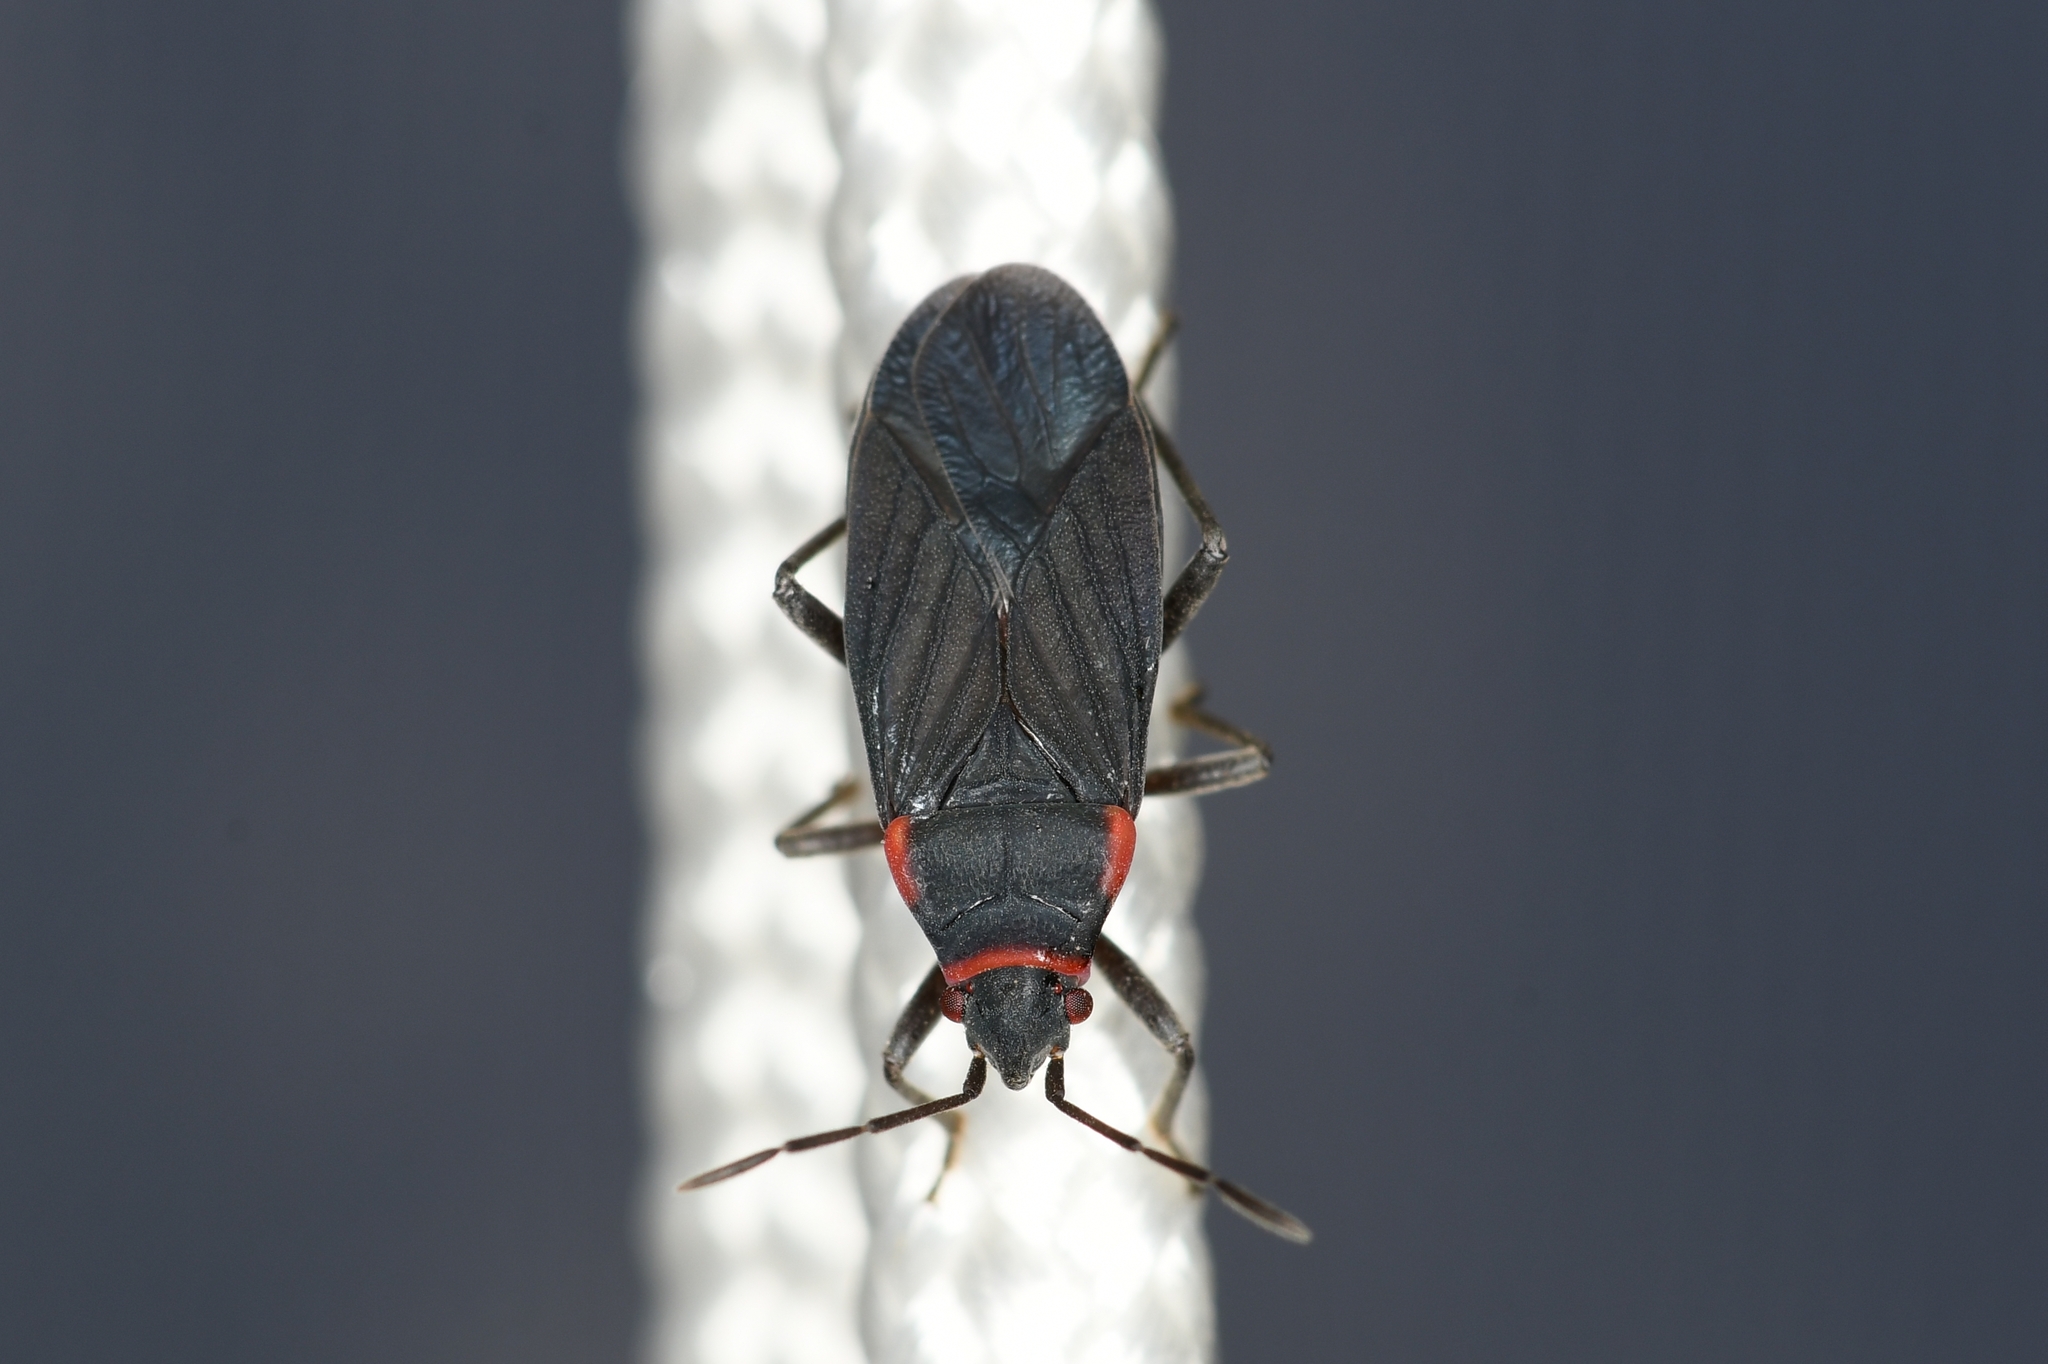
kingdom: Animalia
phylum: Arthropoda
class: Insecta
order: Hemiptera
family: Lygaeidae
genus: Melacoryphus
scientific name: Melacoryphus rubicollis
